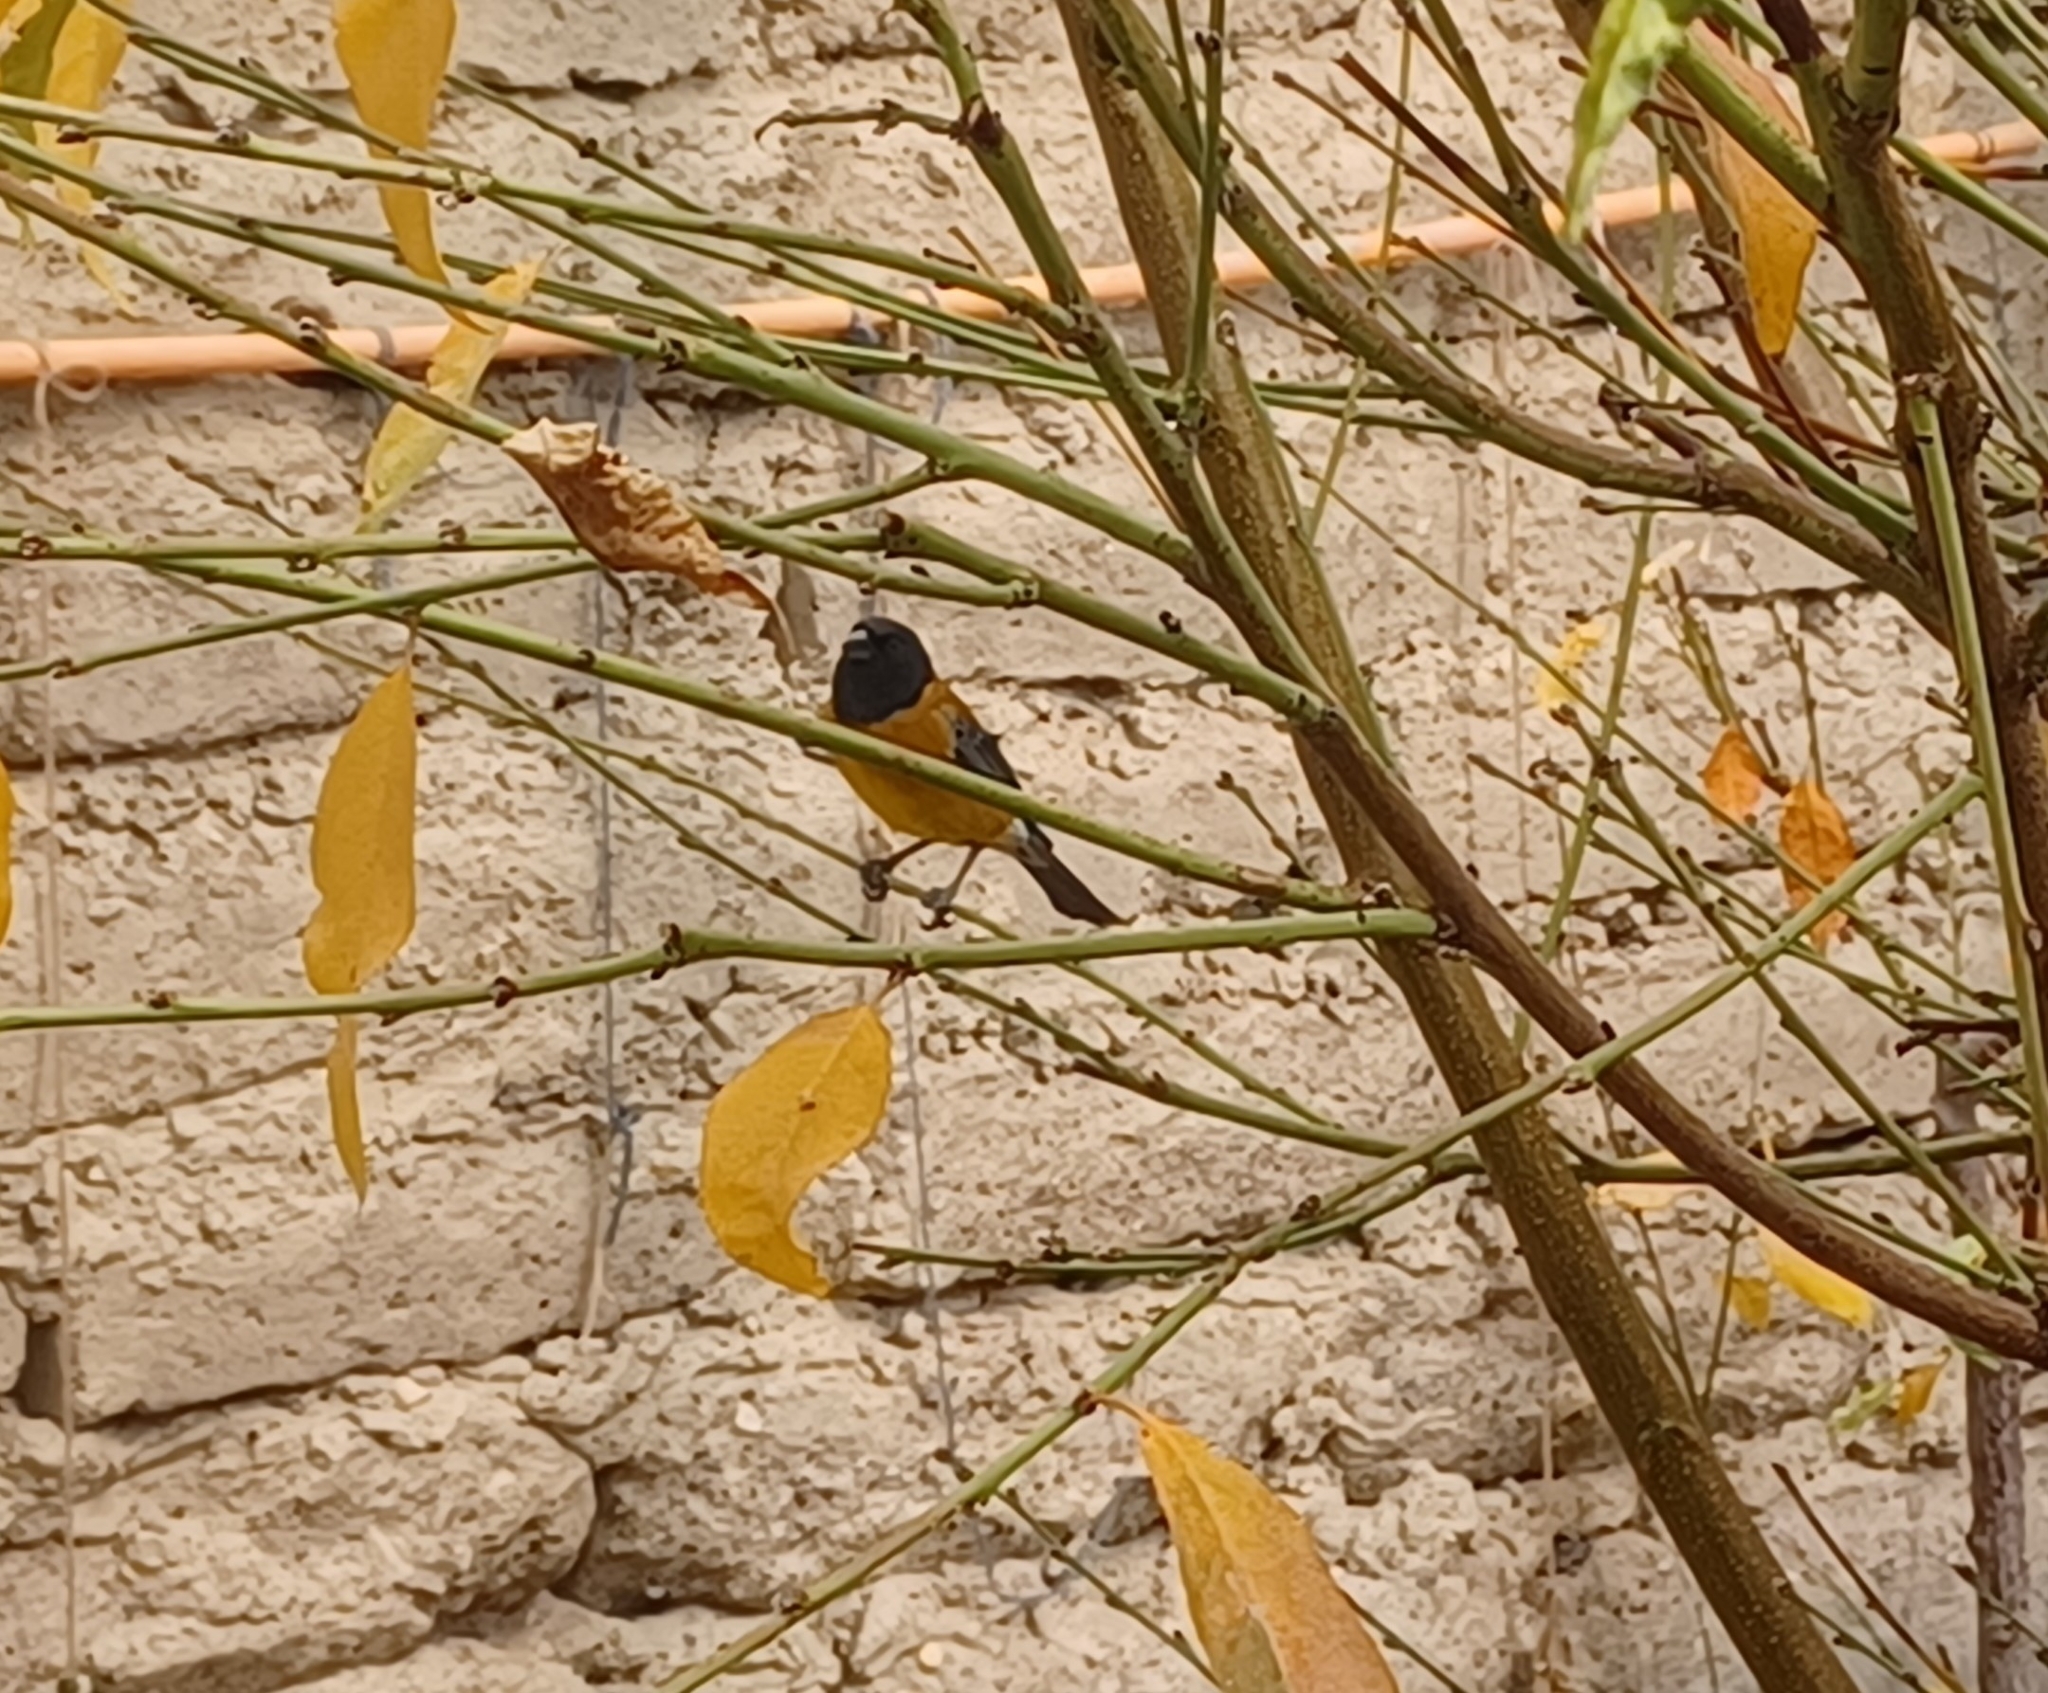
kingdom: Animalia
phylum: Chordata
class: Aves
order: Passeriformes
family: Thraupidae
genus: Phrygilus
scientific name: Phrygilus atriceps
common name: Black-hooded sierra finch
